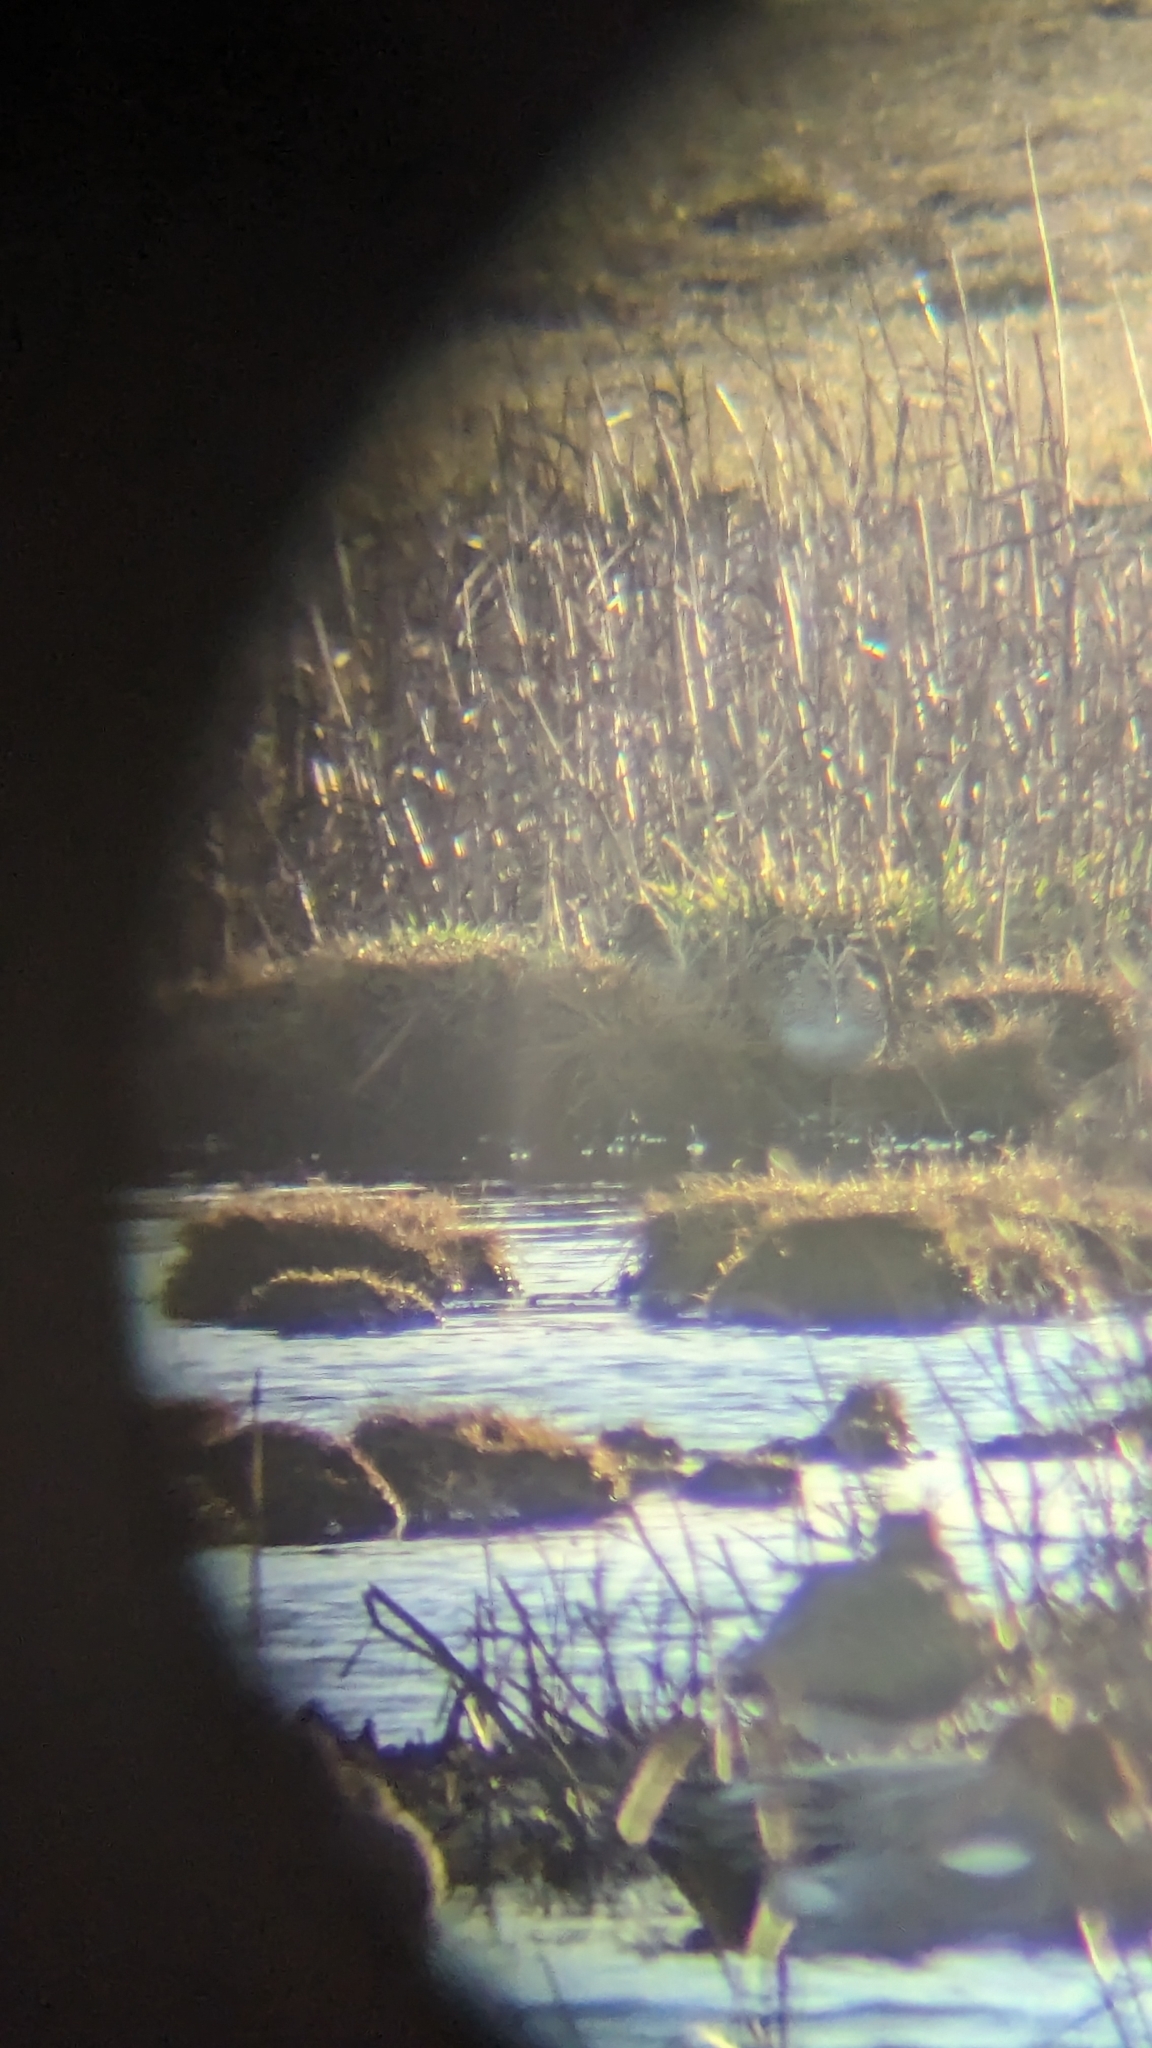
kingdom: Animalia
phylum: Chordata
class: Aves
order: Charadriiformes
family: Scolopacidae
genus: Gallinago
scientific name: Gallinago gallinago
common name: Common snipe
